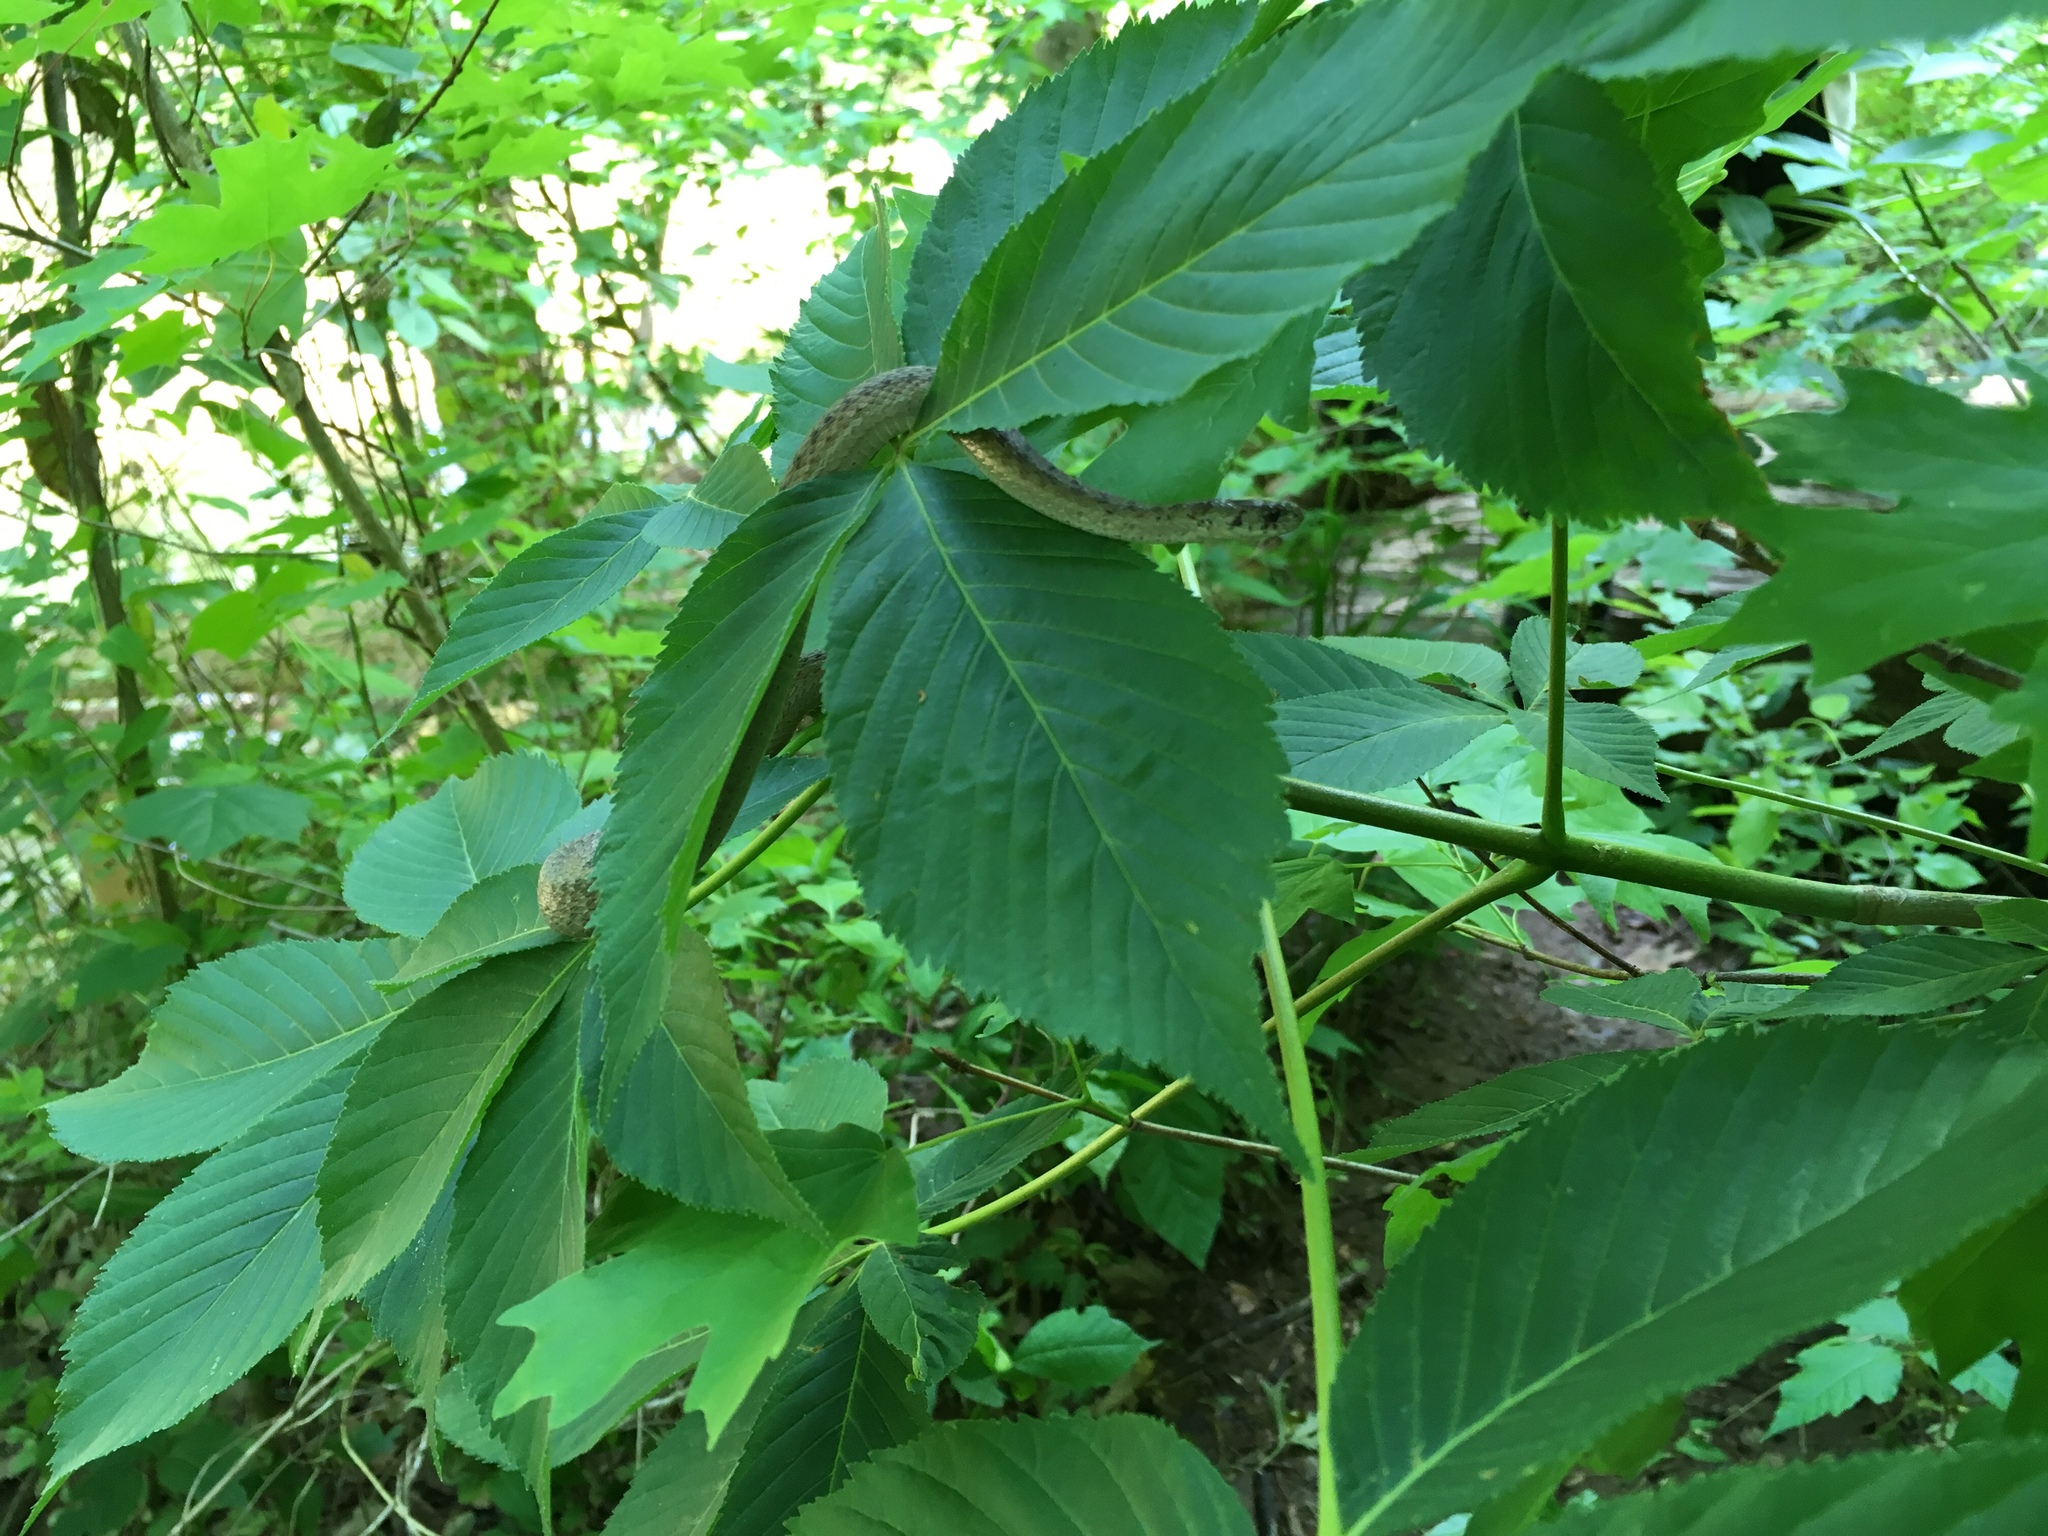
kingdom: Animalia
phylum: Chordata
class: Squamata
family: Colubridae
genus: Storeria
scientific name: Storeria dekayi
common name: (dekay’s) brown snake
